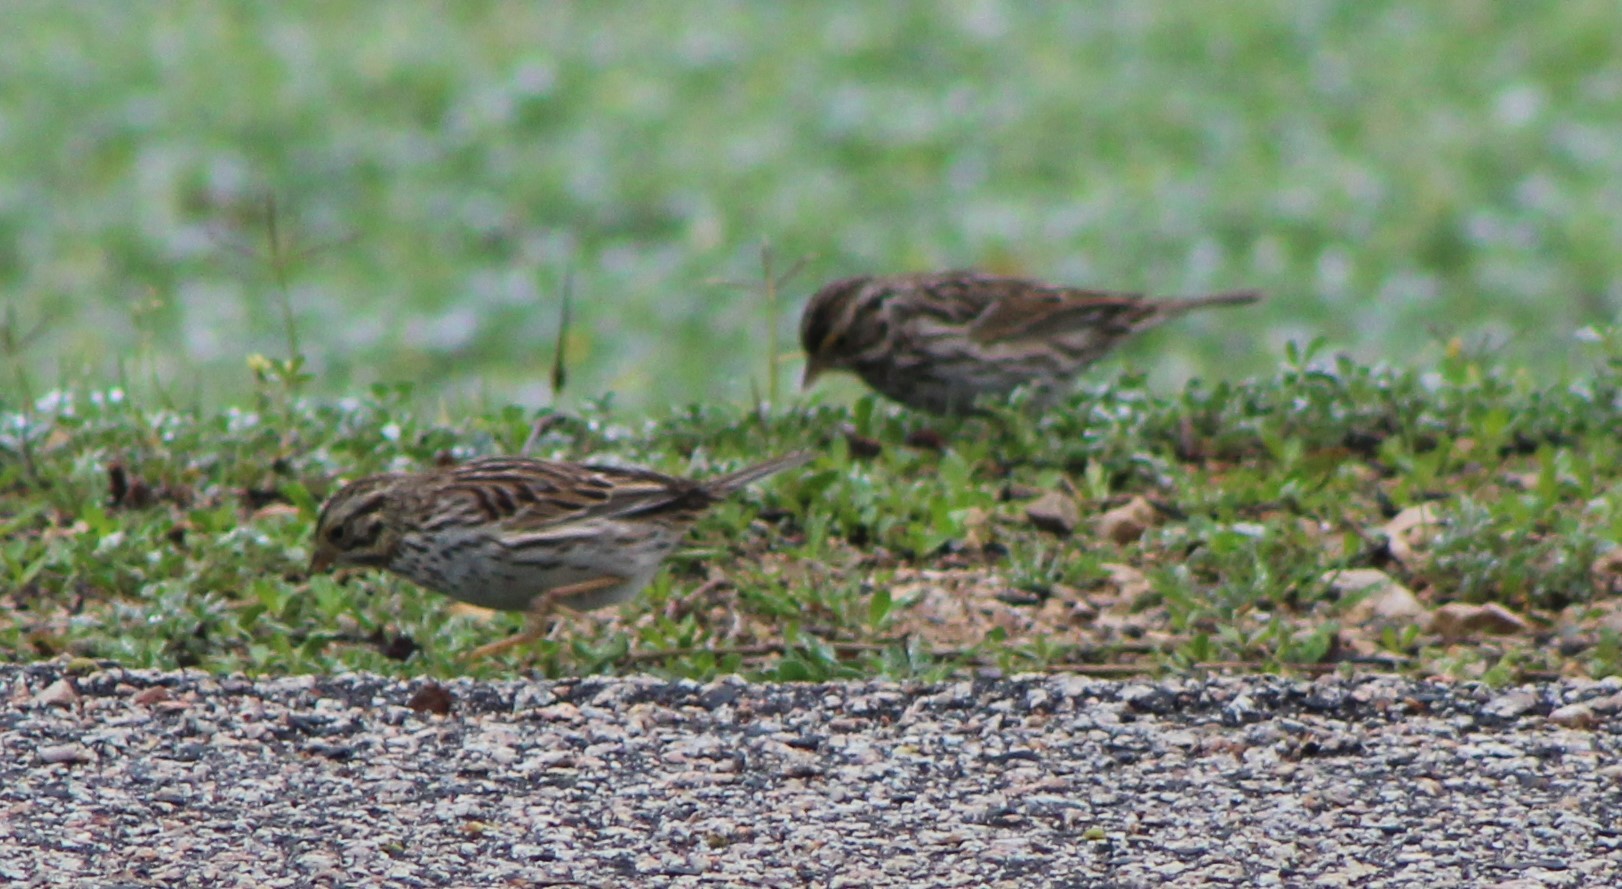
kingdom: Animalia
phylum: Chordata
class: Aves
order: Passeriformes
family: Passerellidae
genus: Passerculus
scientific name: Passerculus sandwichensis
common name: Savannah sparrow
